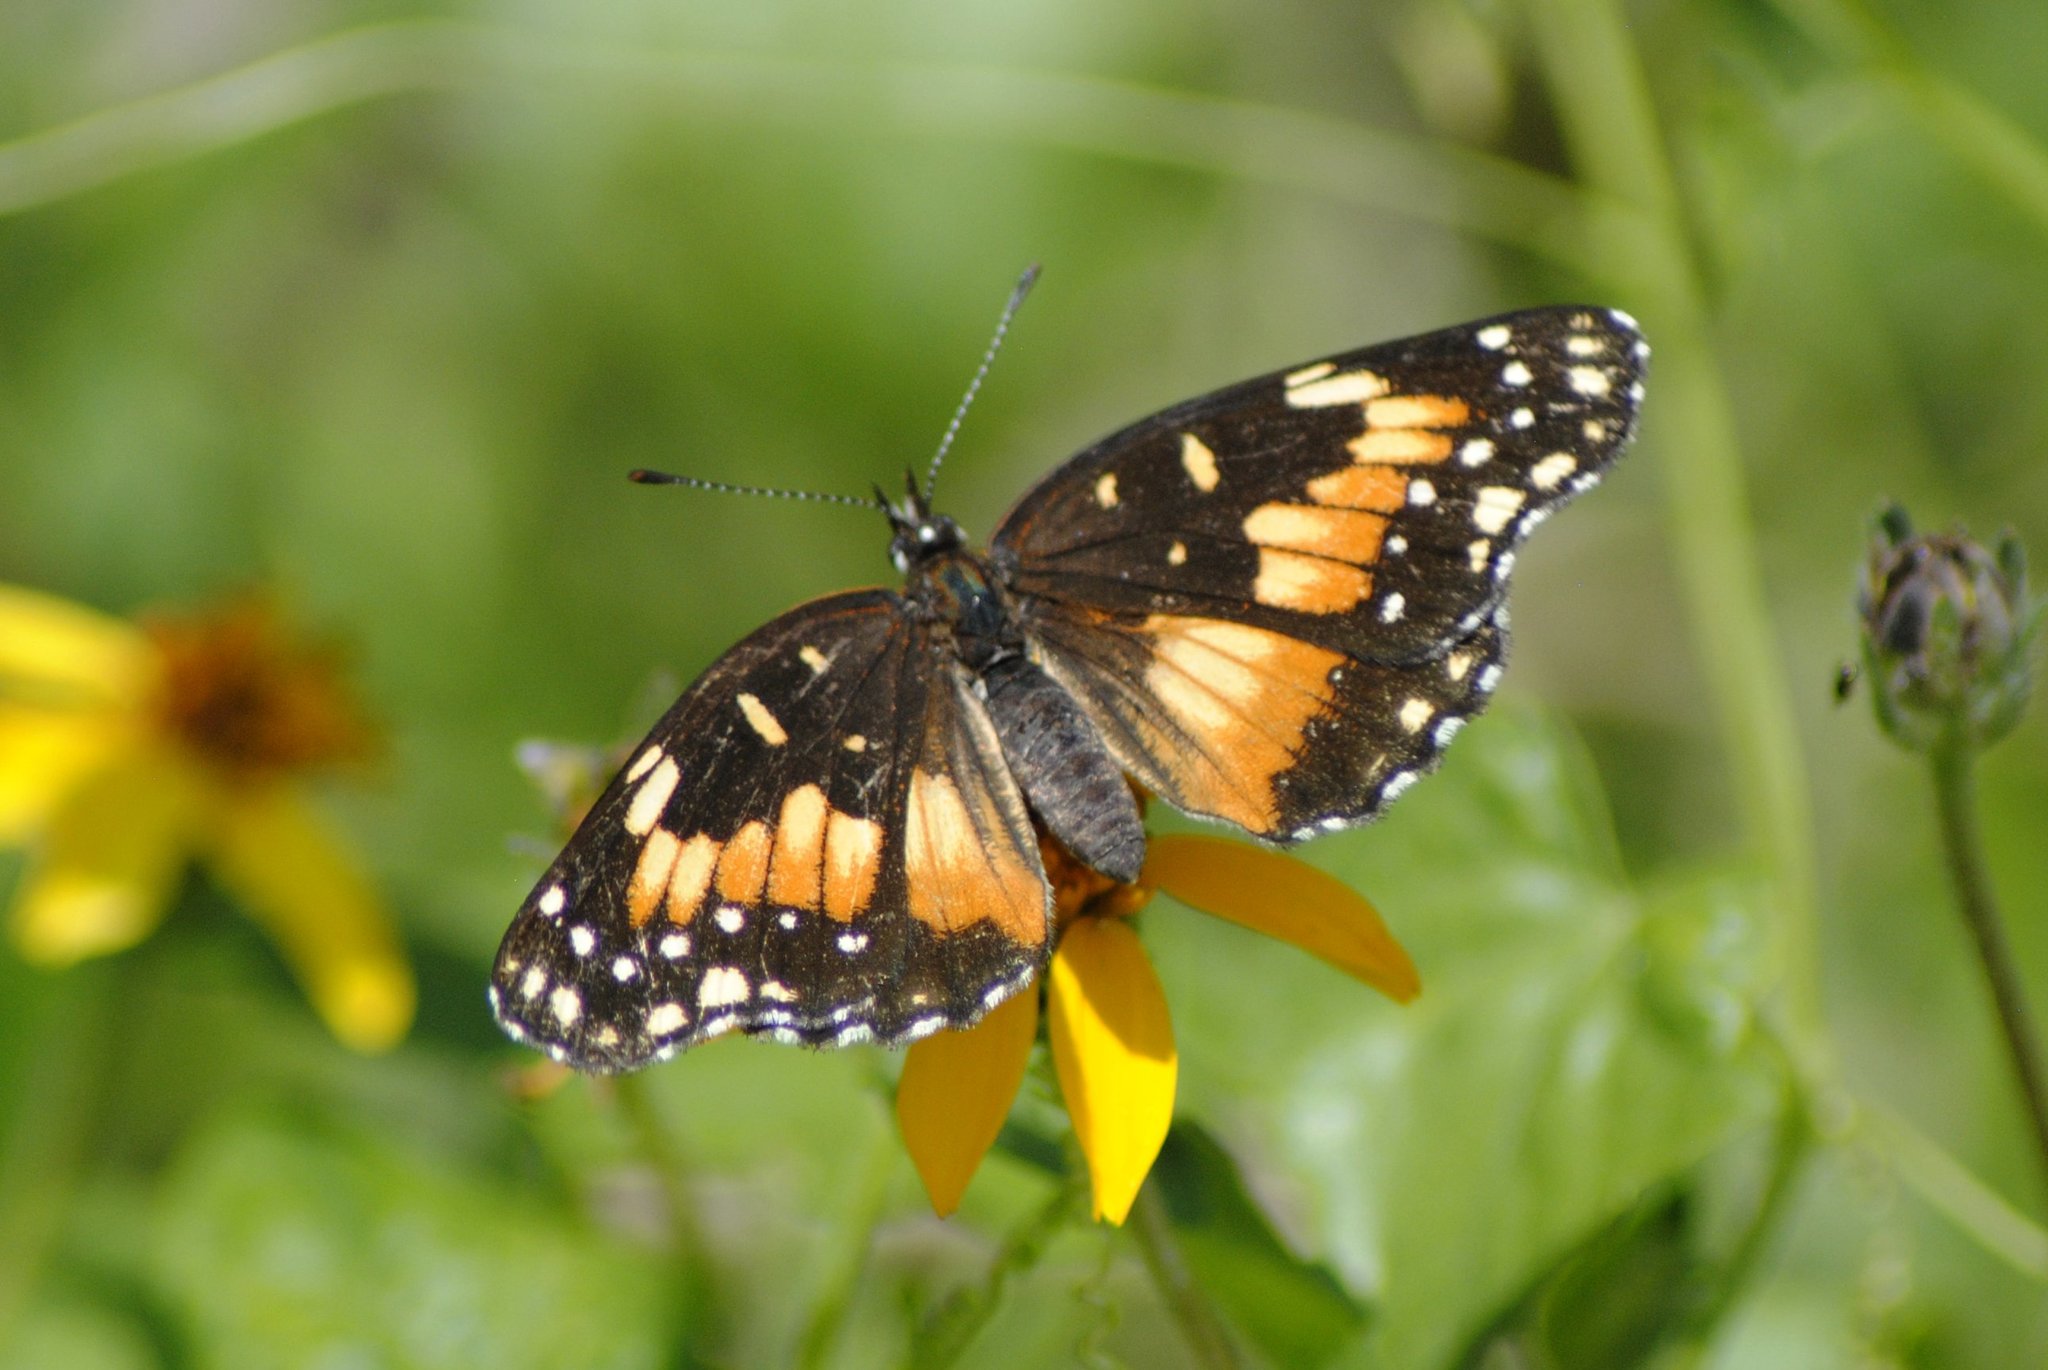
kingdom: Animalia
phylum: Arthropoda
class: Insecta
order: Lepidoptera
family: Nymphalidae
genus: Chlosyne
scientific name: Chlosyne lacinia
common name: Bordered patch
